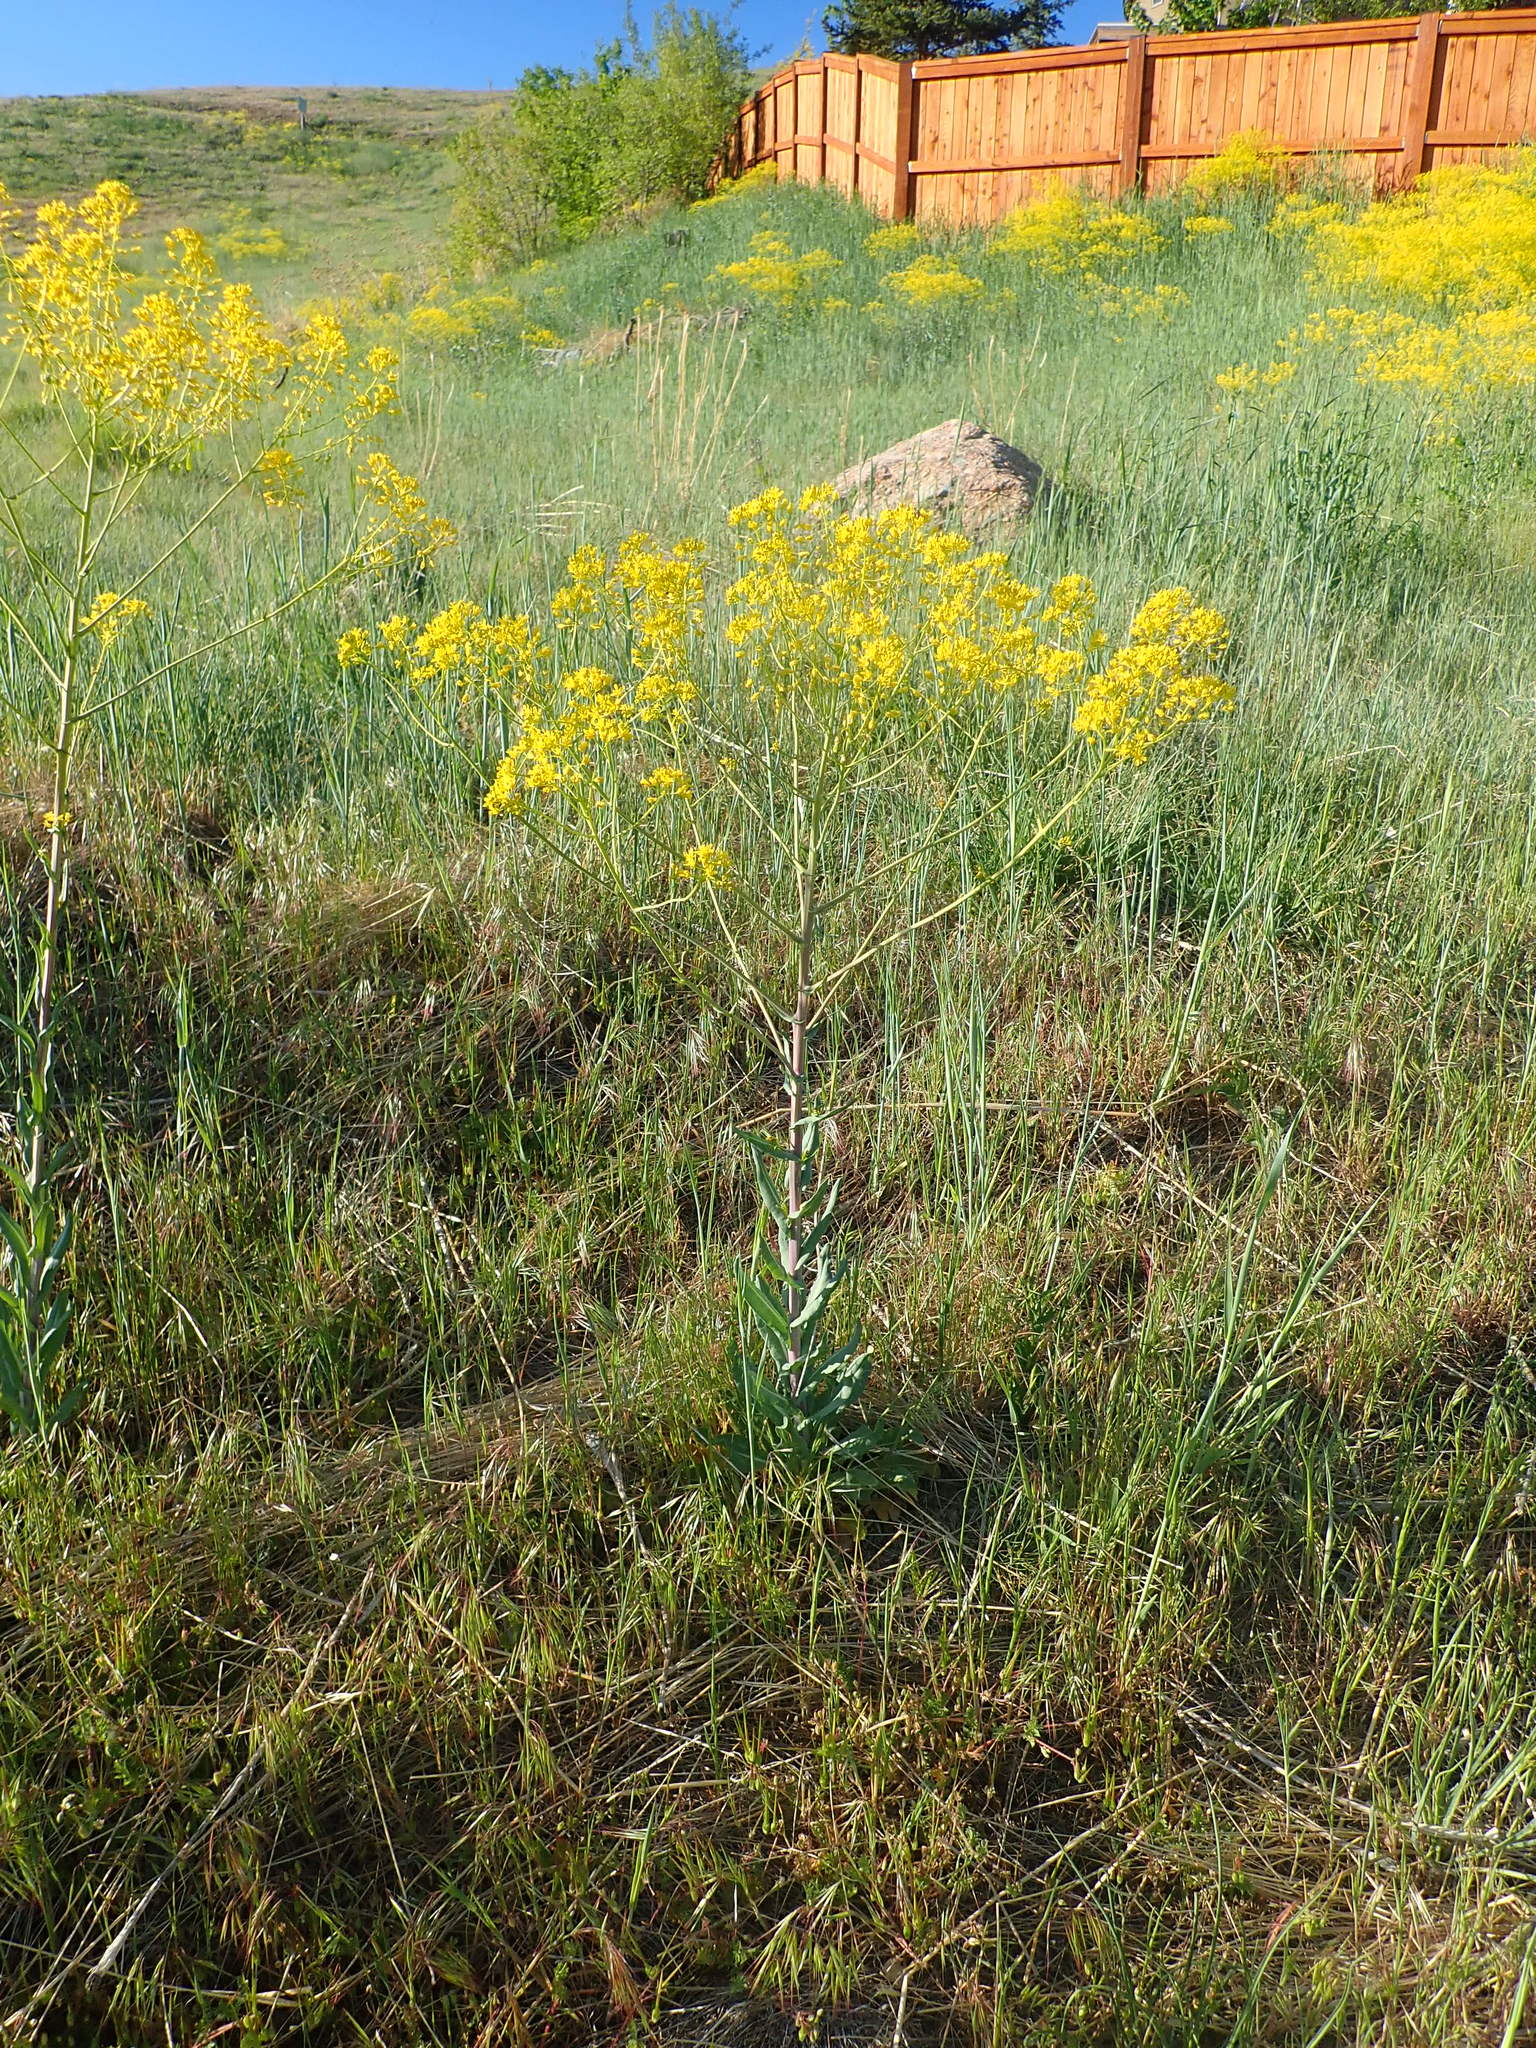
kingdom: Plantae
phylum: Tracheophyta
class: Magnoliopsida
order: Brassicales
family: Brassicaceae
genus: Isatis
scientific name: Isatis tinctoria
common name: Woad
